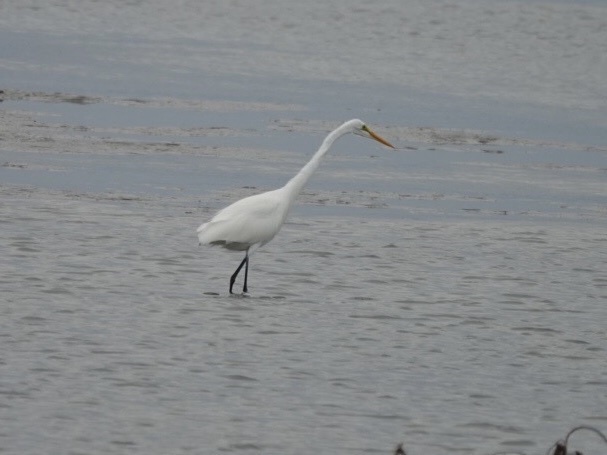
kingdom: Animalia
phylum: Chordata
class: Aves
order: Pelecaniformes
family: Ardeidae
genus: Ardea
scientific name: Ardea alba
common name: Great egret
